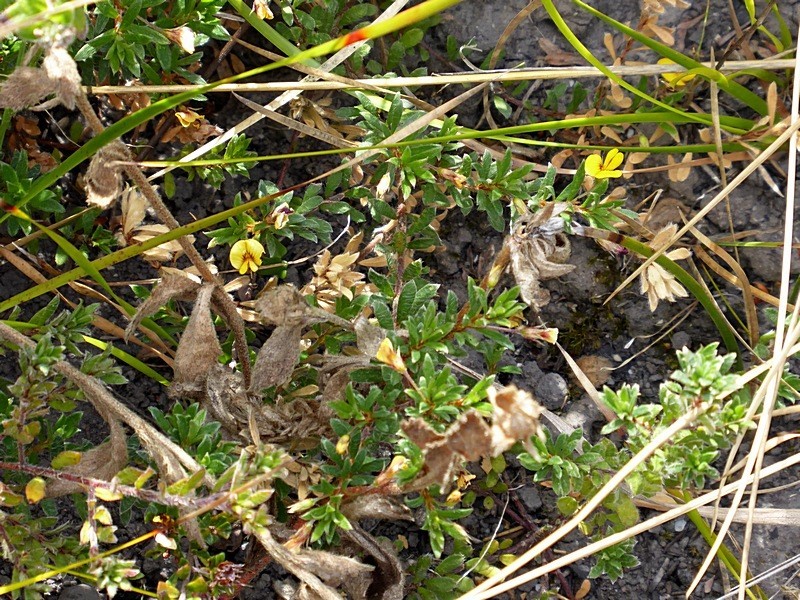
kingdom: Plantae
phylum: Tracheophyta
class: Magnoliopsida
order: Fabales
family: Fabaceae
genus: Pultenaea
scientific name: Pultenaea pedunculata
